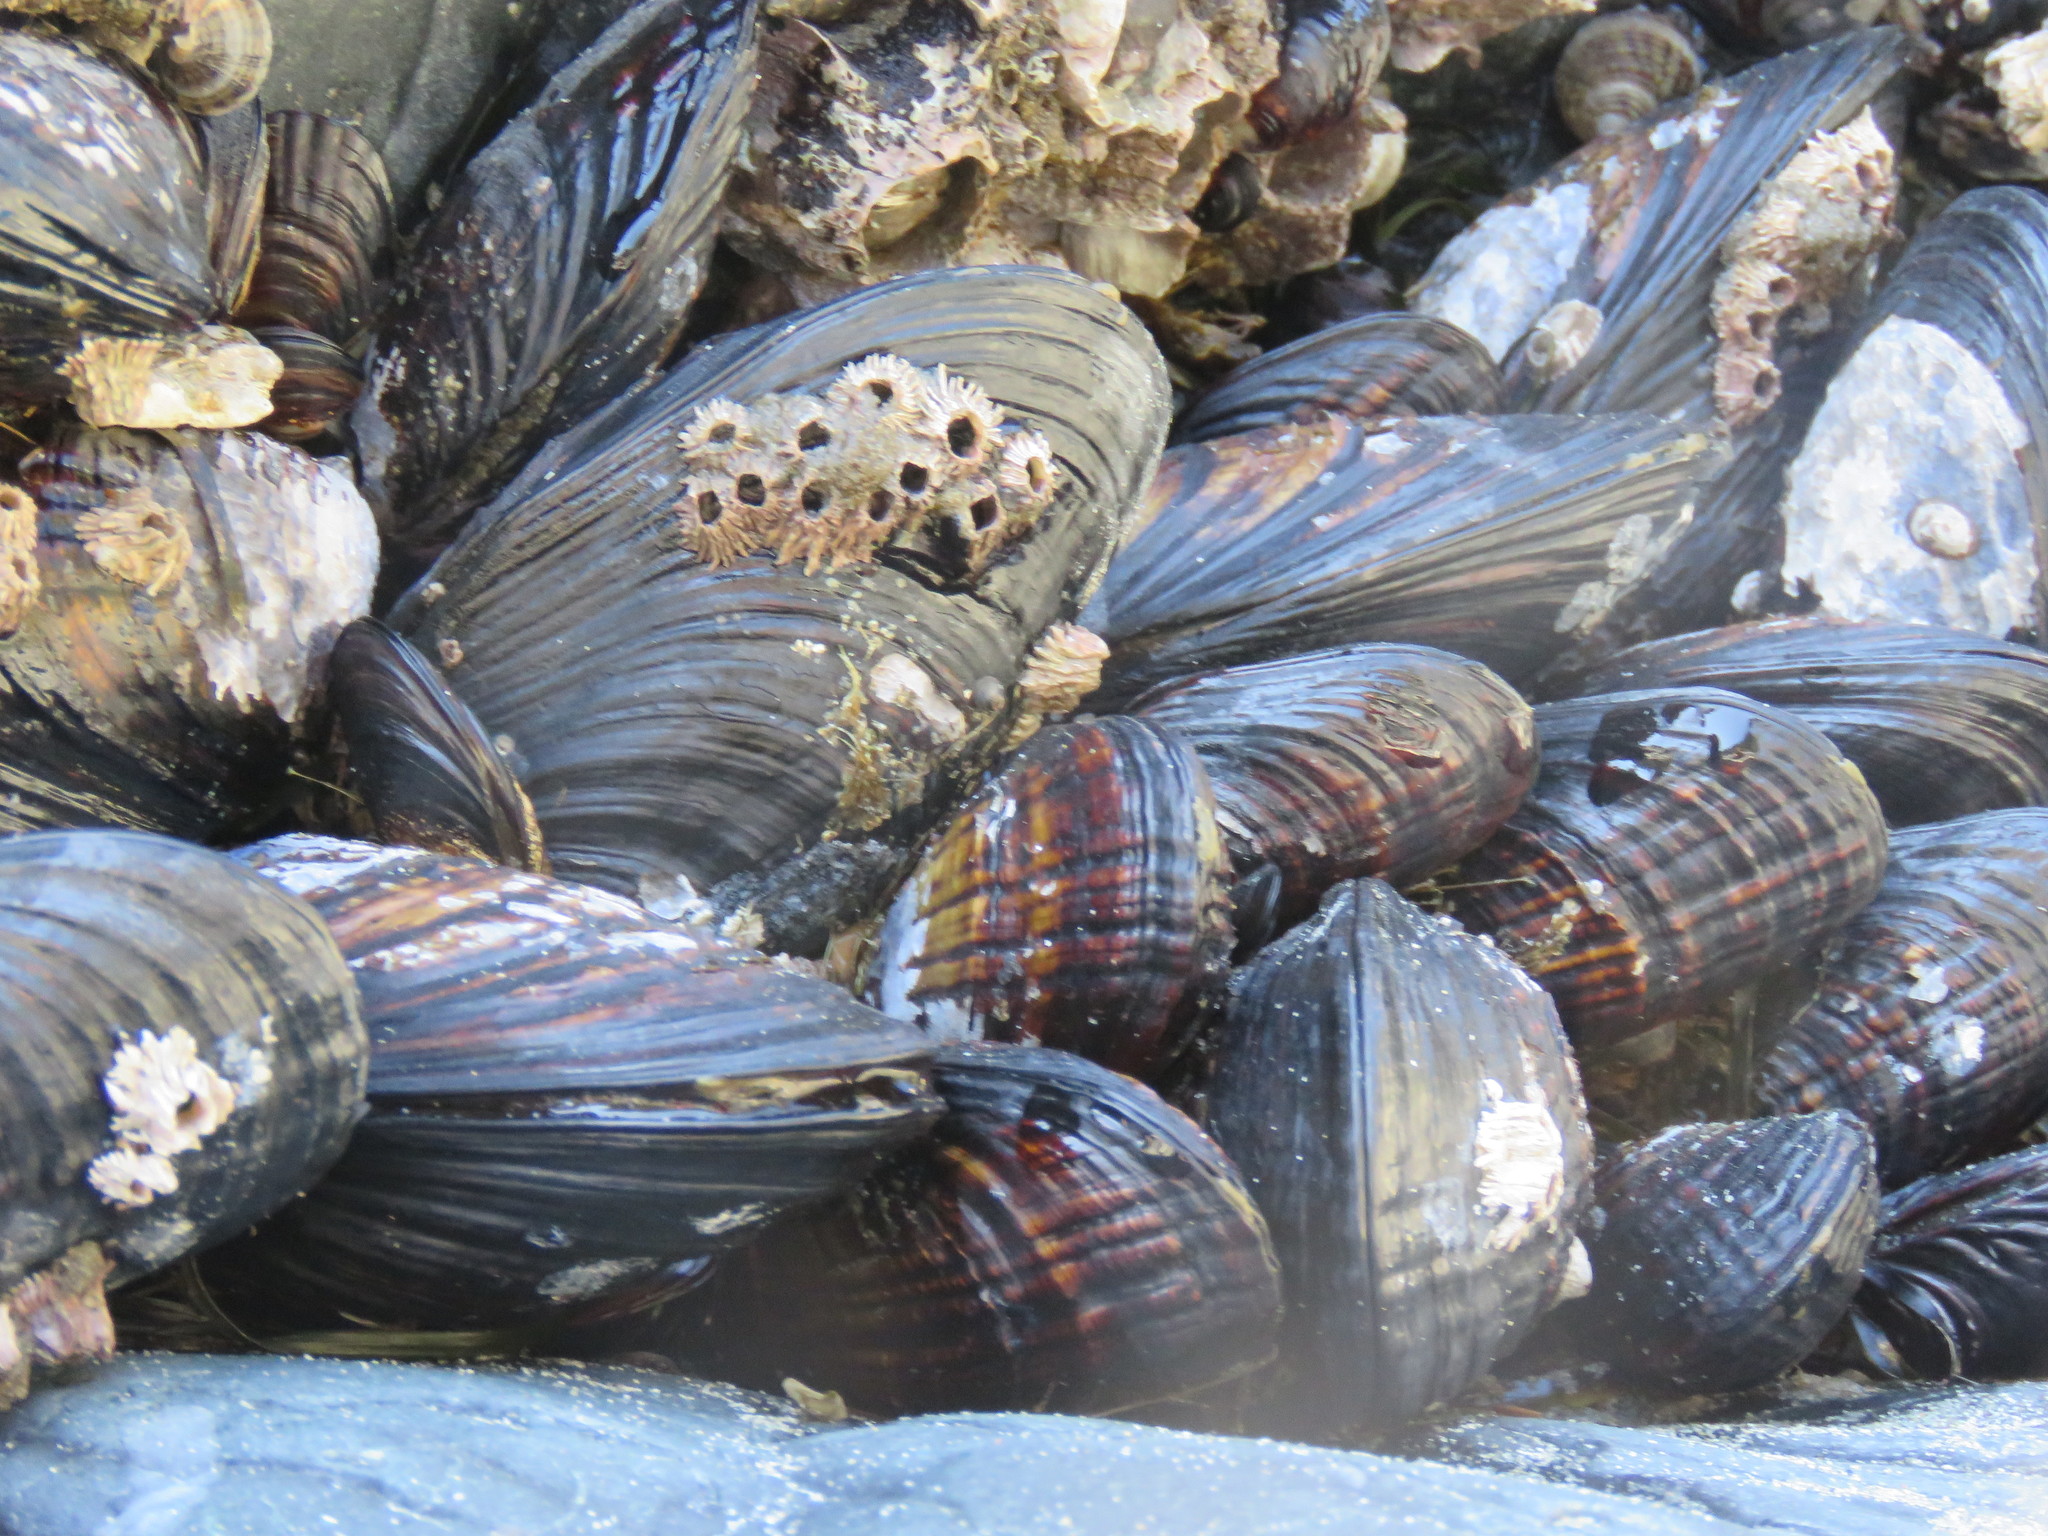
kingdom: Animalia
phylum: Mollusca
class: Bivalvia
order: Mytilida
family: Mytilidae
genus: Mytilus
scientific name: Mytilus californianus
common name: California mussel
